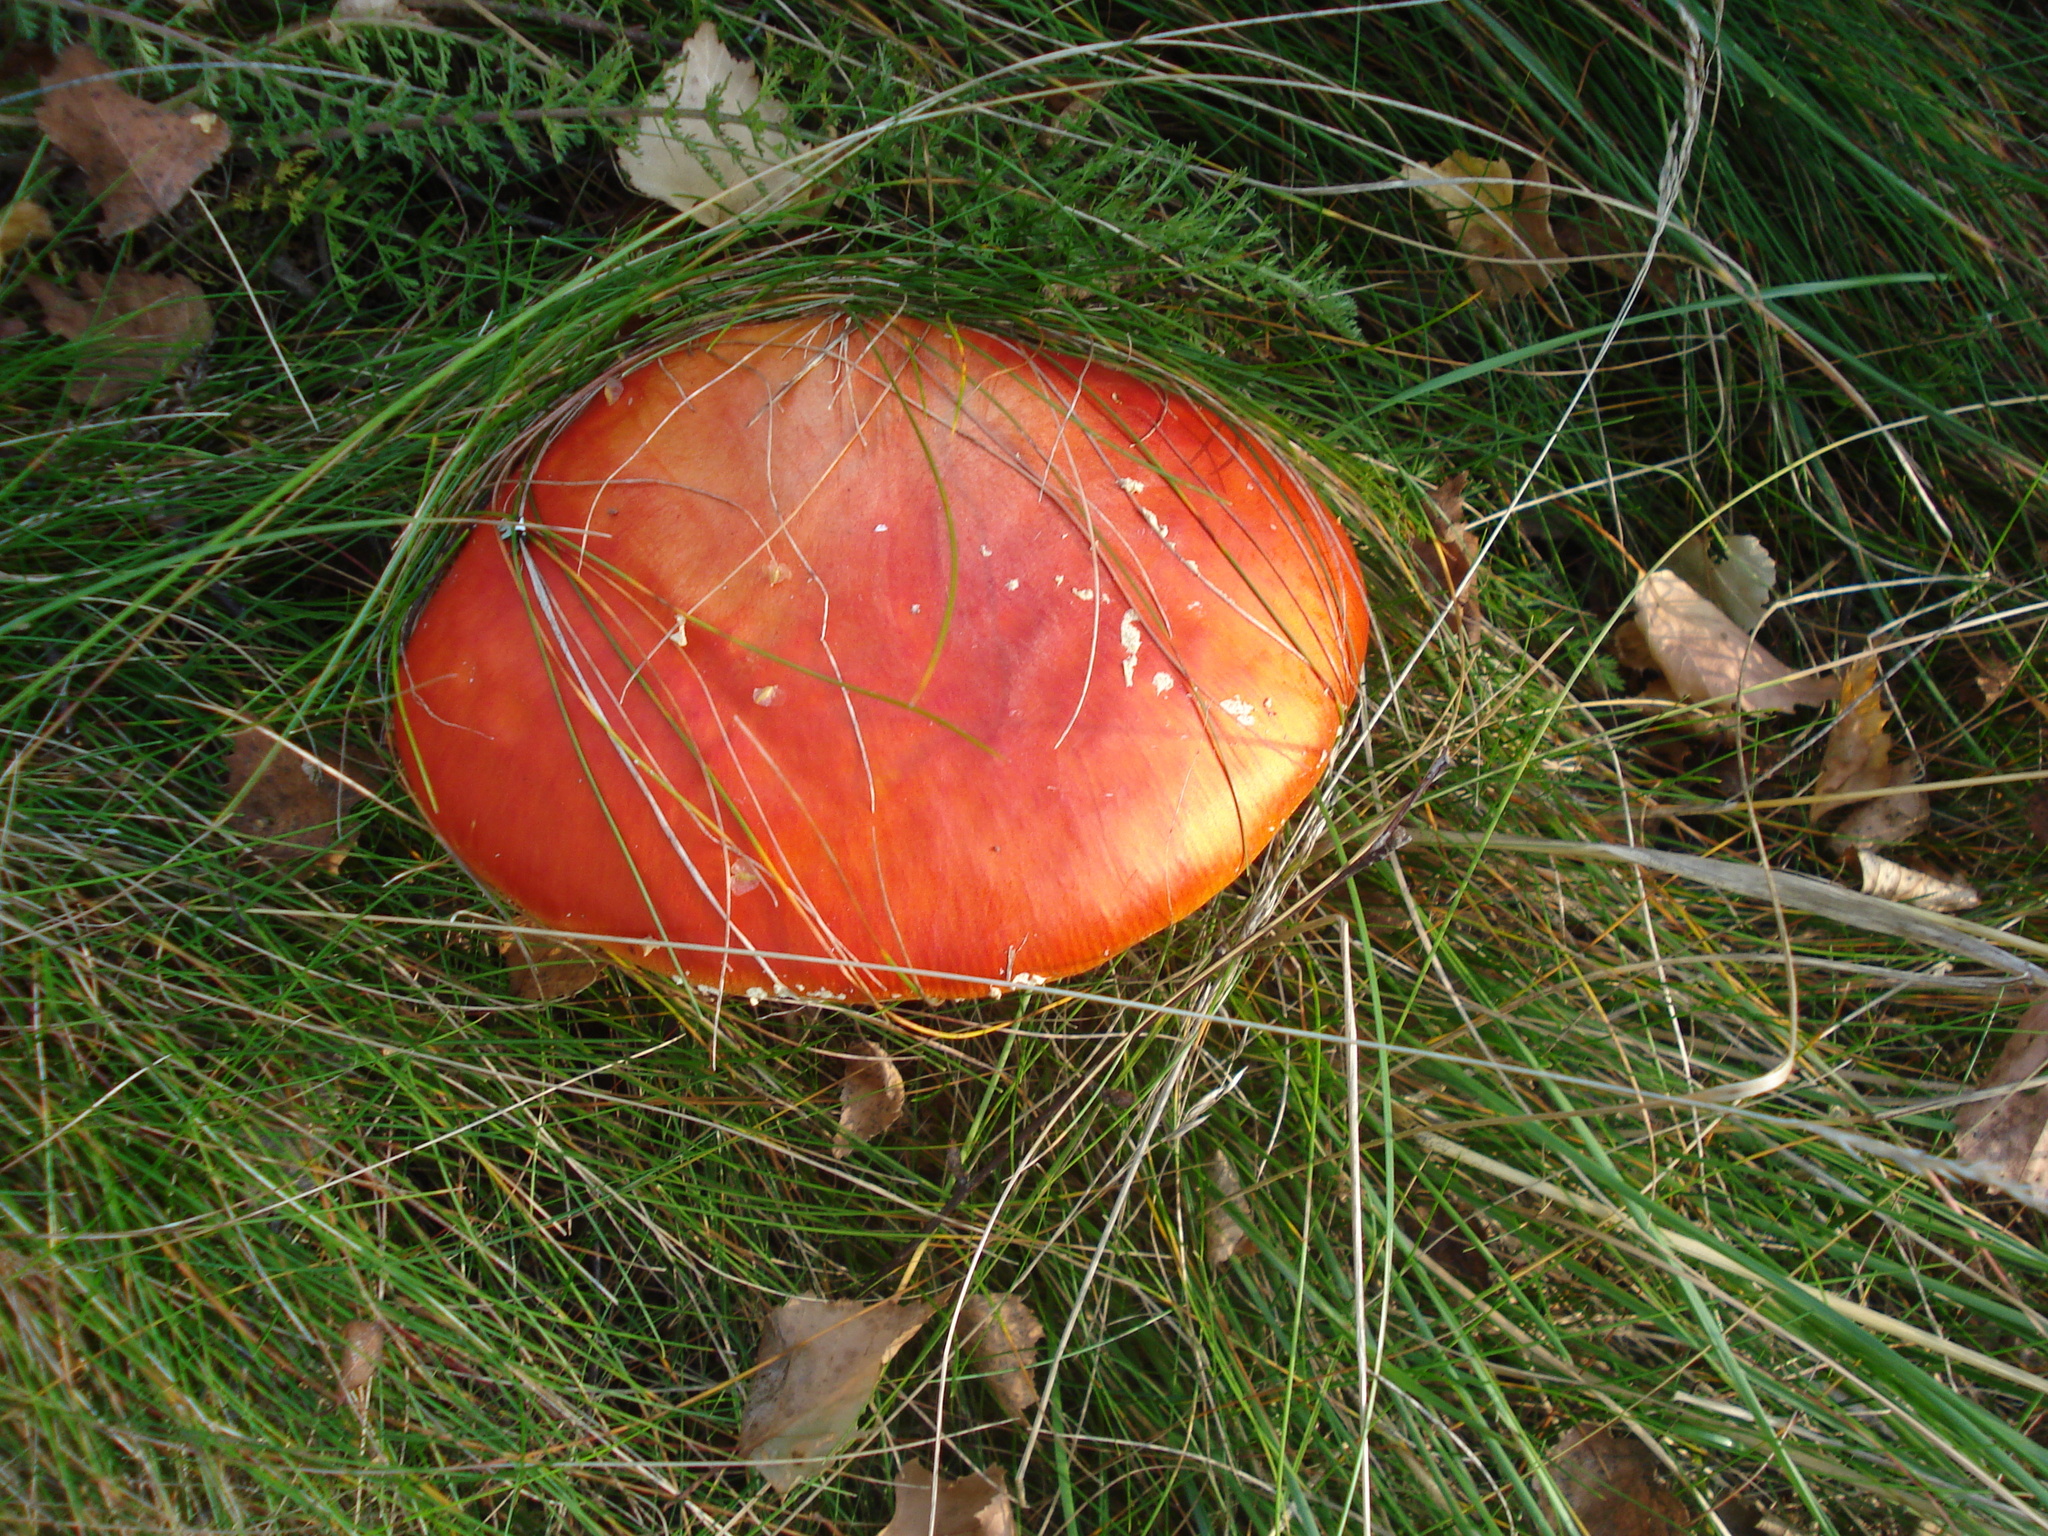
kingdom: Fungi
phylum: Basidiomycota
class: Agaricomycetes
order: Agaricales
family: Amanitaceae
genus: Amanita
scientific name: Amanita muscaria
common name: Fly agaric
